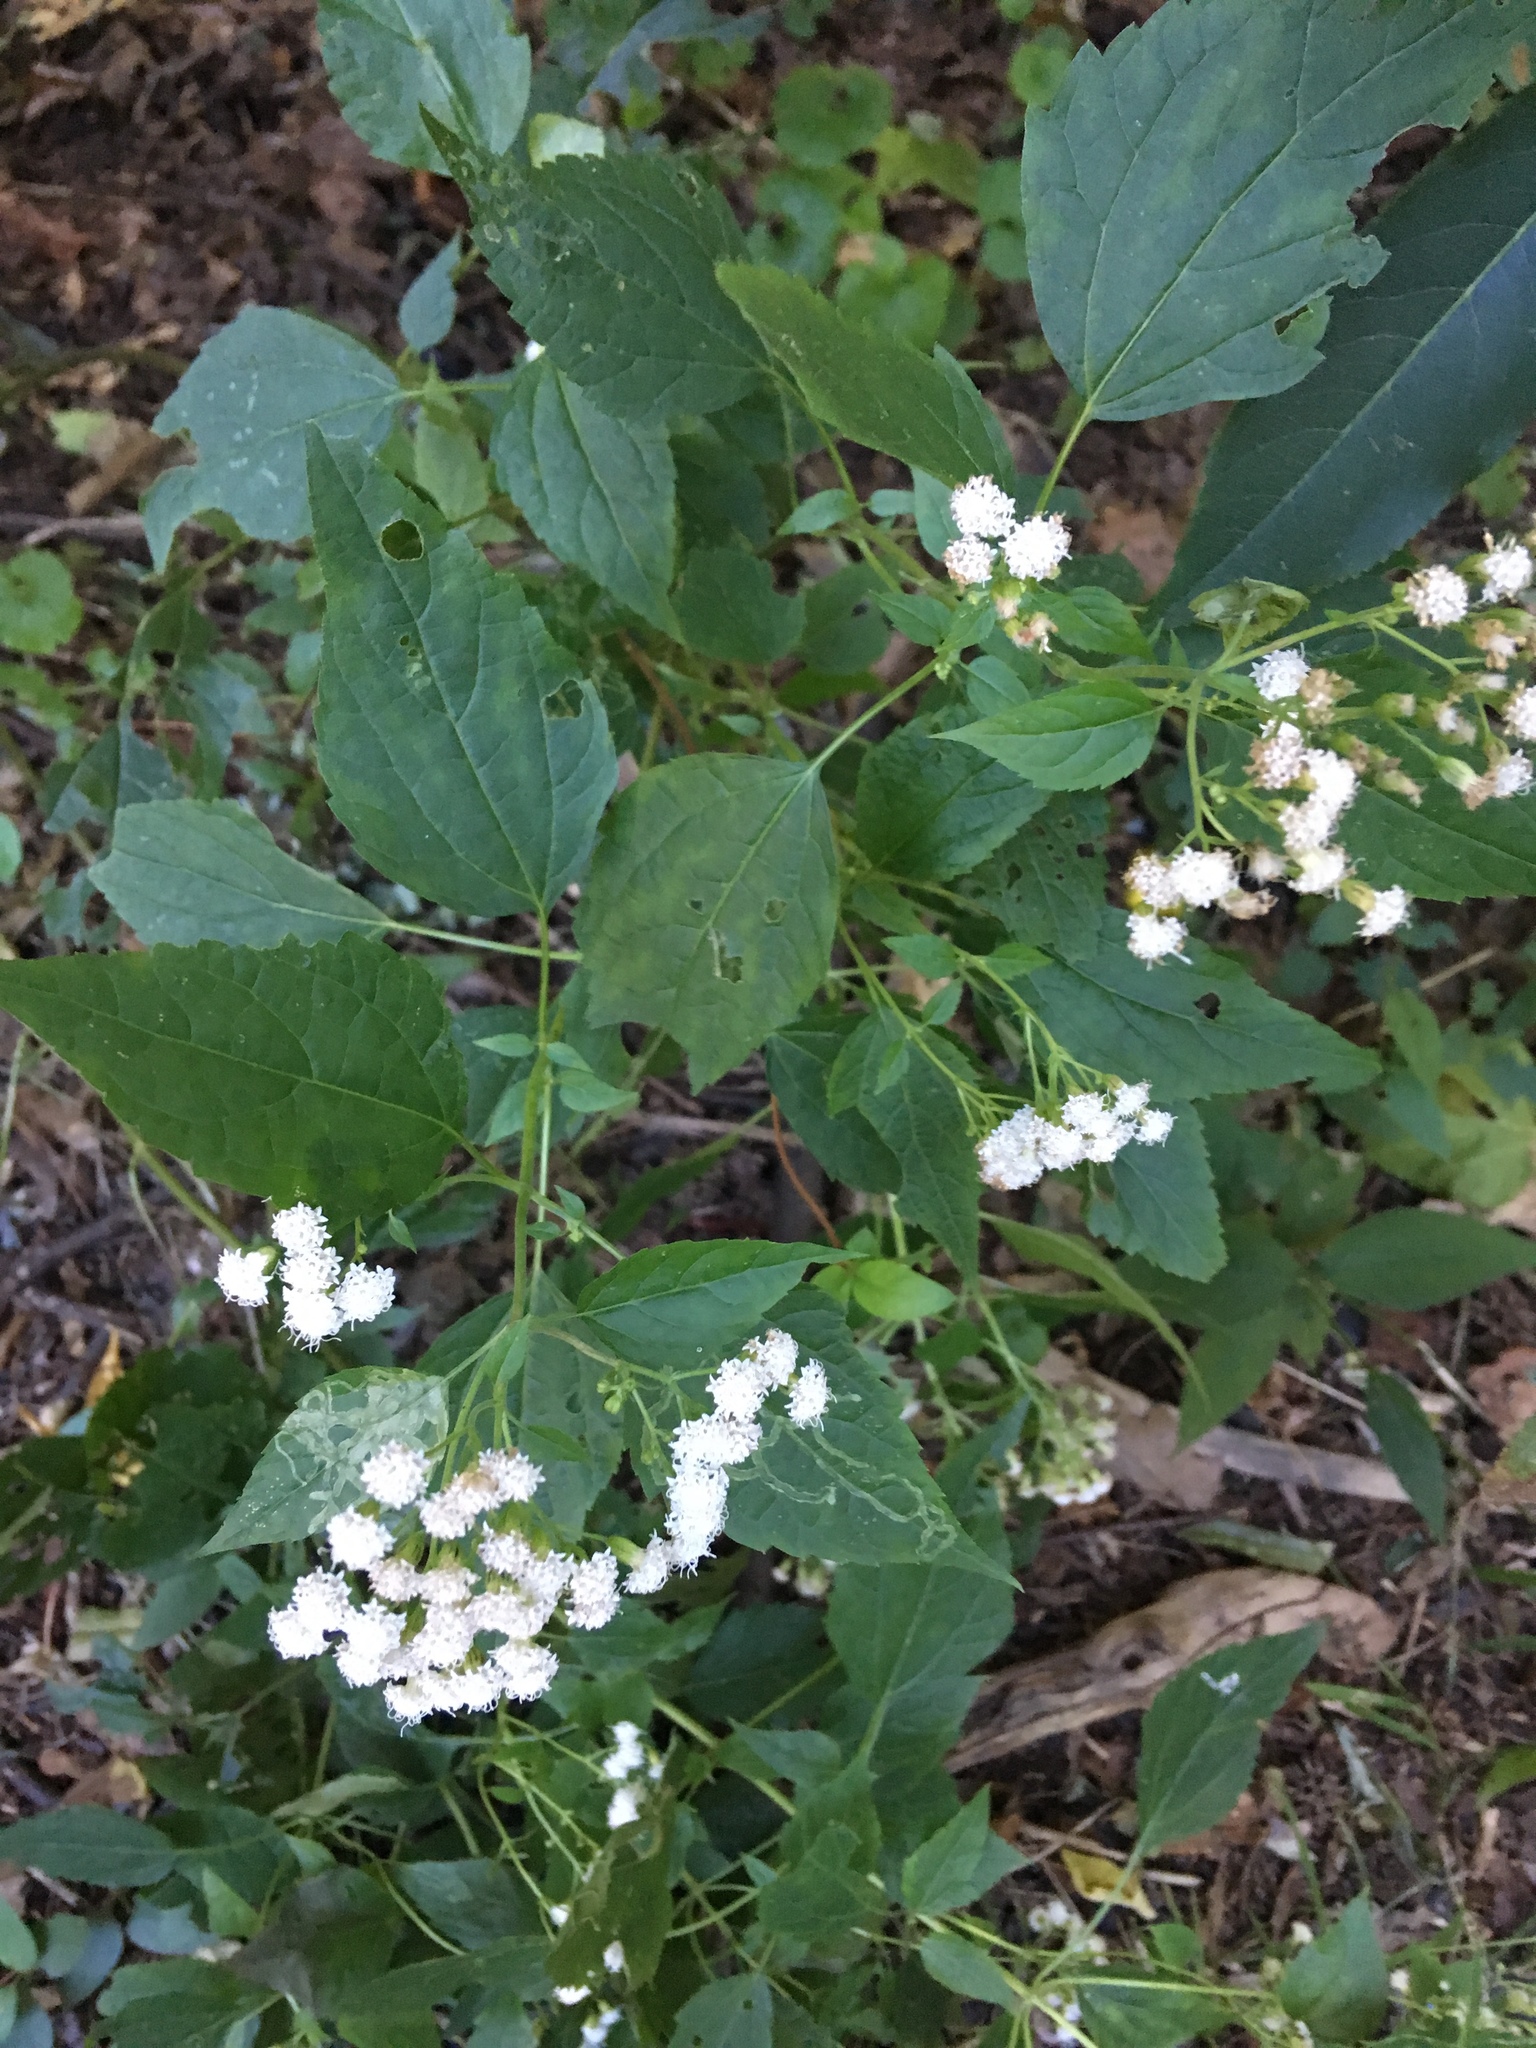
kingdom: Plantae
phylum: Tracheophyta
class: Magnoliopsida
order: Asterales
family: Asteraceae
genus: Ageratina
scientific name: Ageratina altissima
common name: White snakeroot
